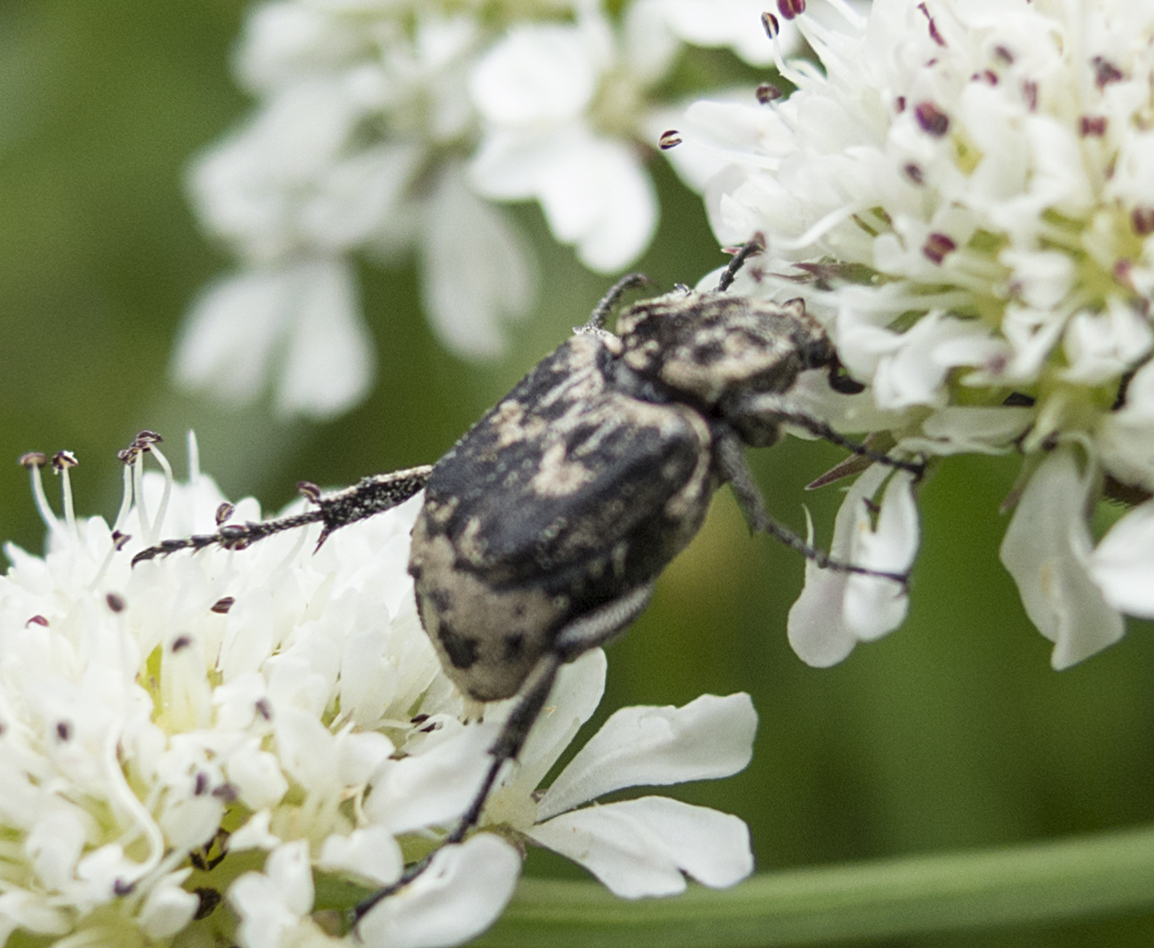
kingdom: Animalia
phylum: Arthropoda
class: Insecta
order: Coleoptera
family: Scarabaeidae
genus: Valgus
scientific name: Valgus hemipterus
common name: Bug flower chafer
